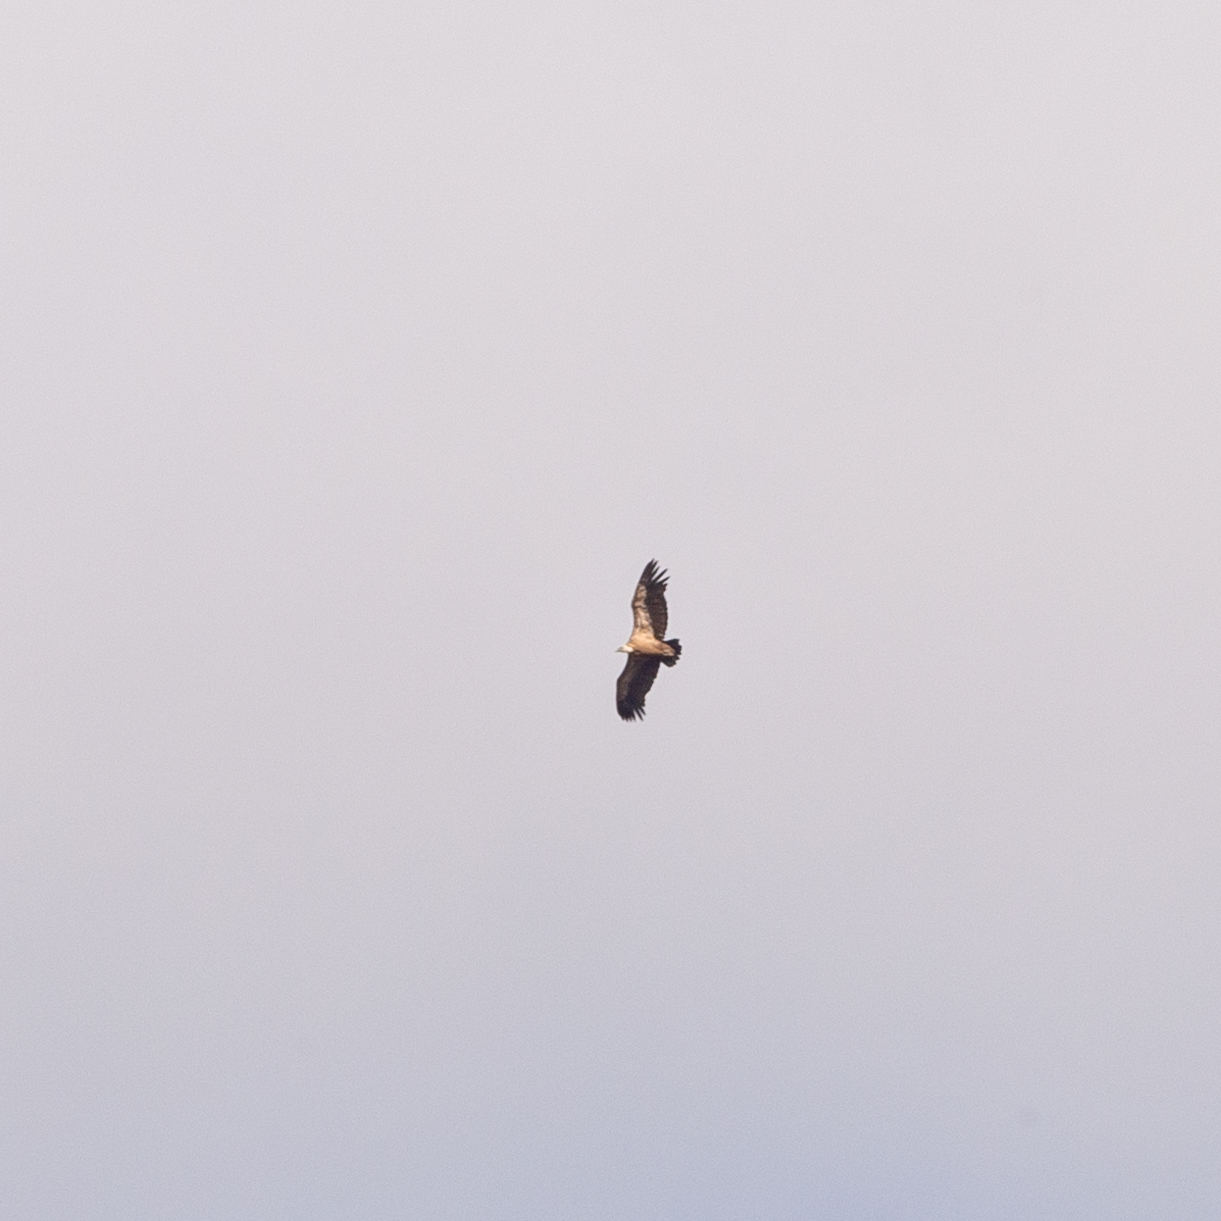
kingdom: Animalia
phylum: Chordata
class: Aves
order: Accipitriformes
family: Accipitridae
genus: Gyps
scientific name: Gyps fulvus
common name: Griffon vulture
